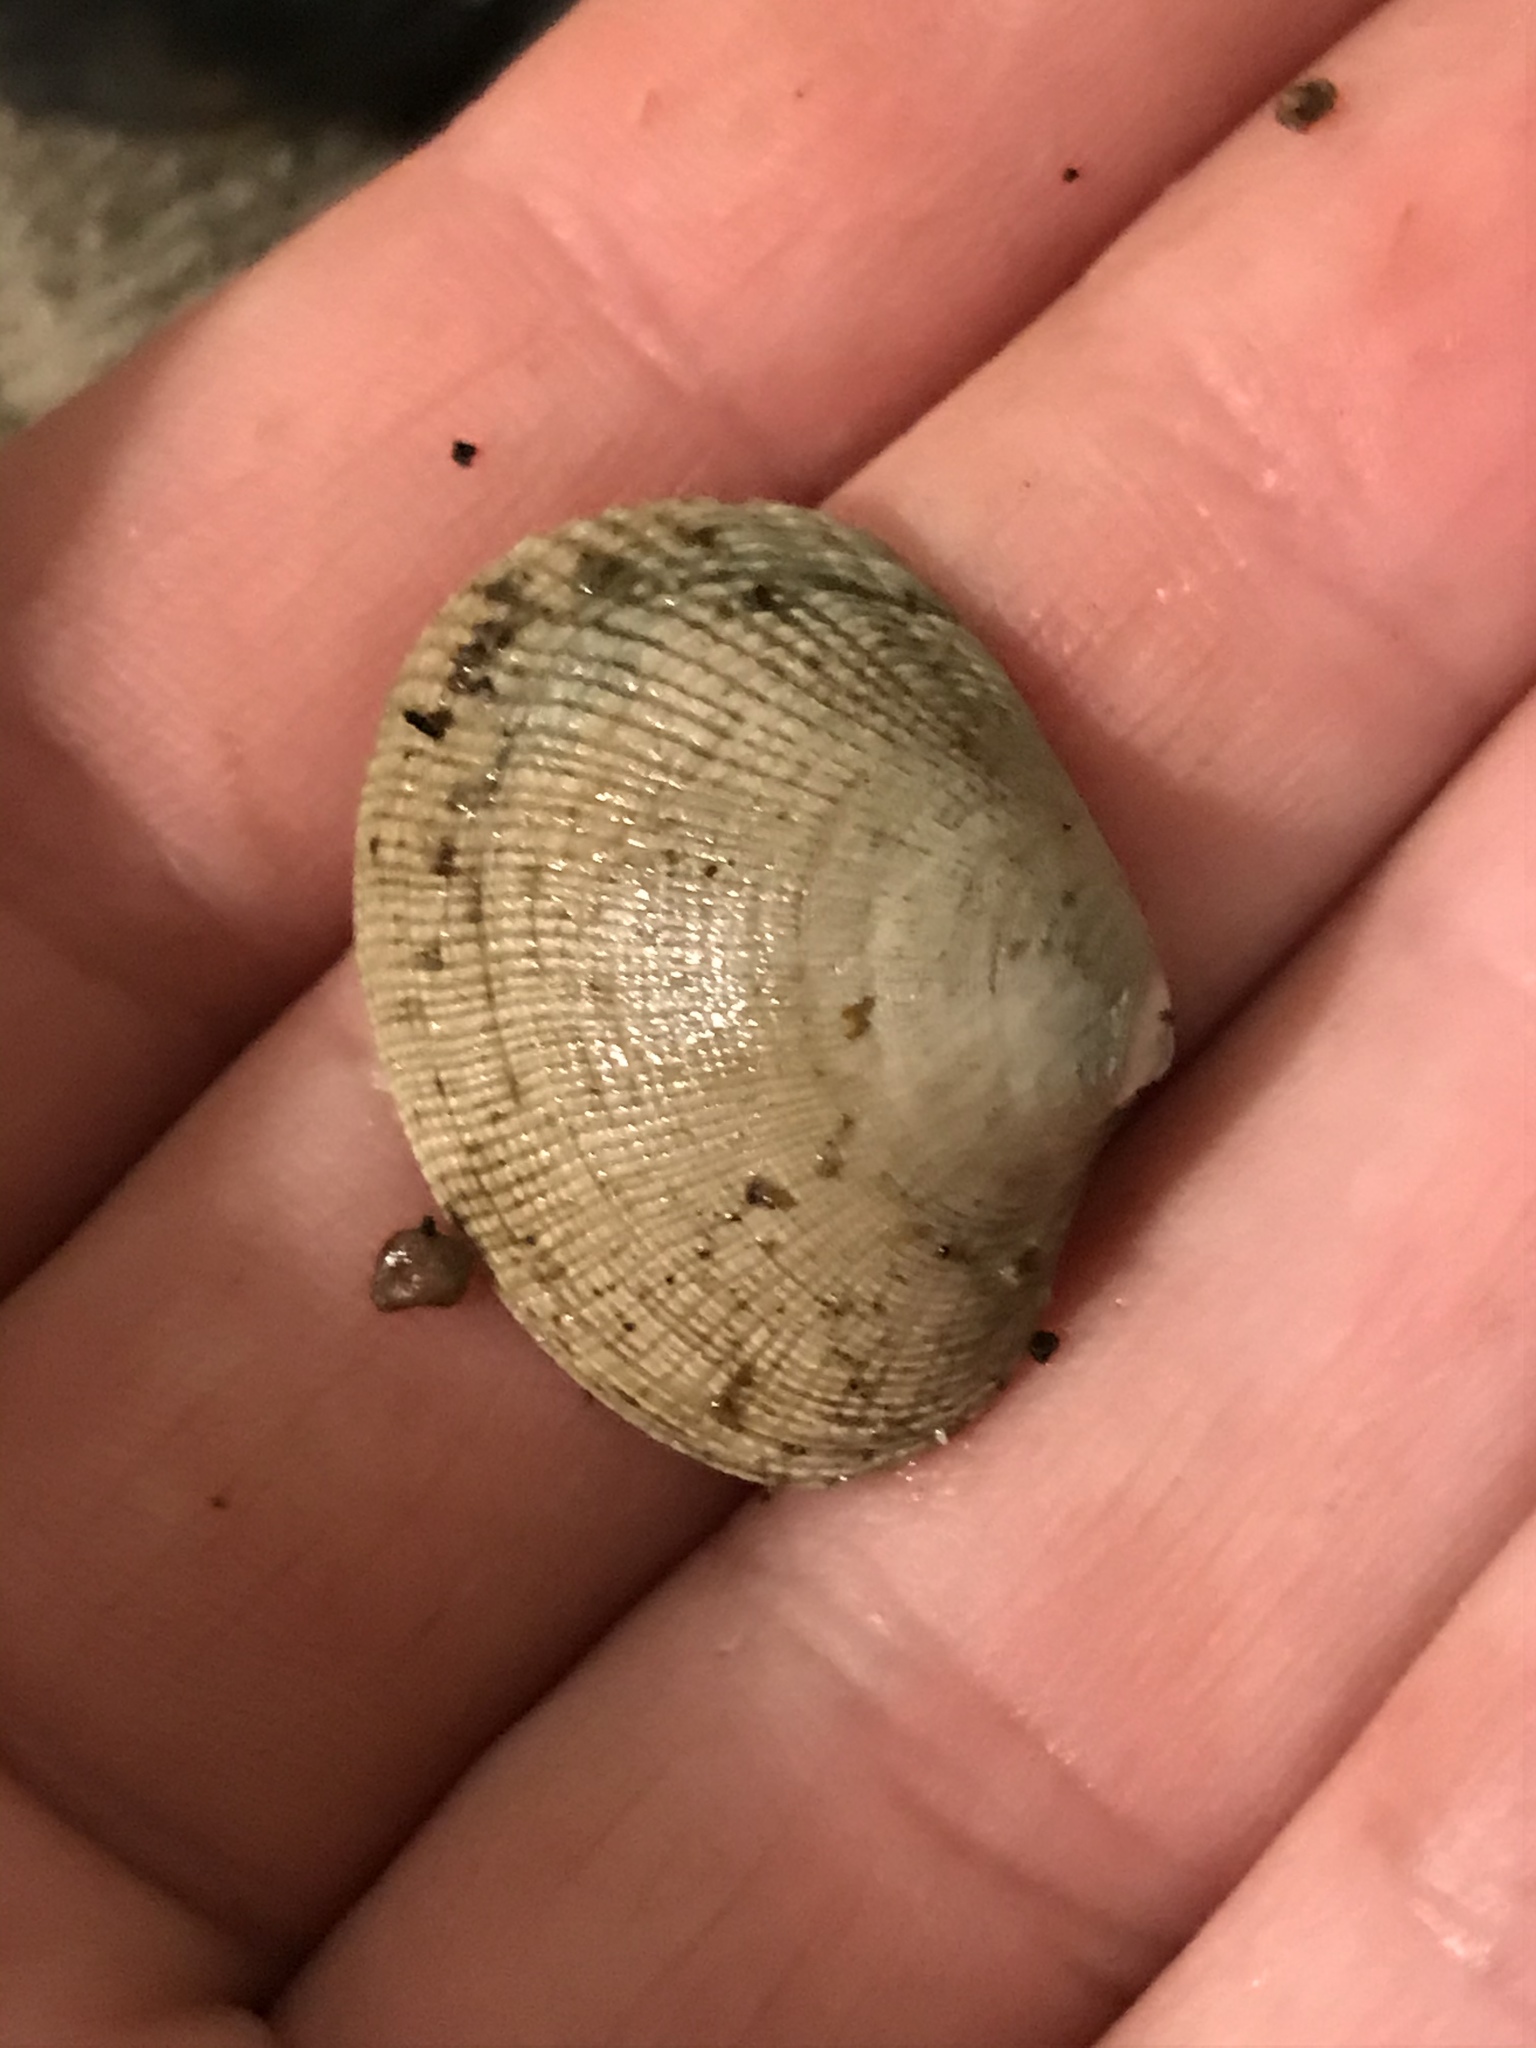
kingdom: Animalia
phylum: Mollusca
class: Bivalvia
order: Venerida
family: Veneridae
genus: Ruditapes
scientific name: Ruditapes philippinarum
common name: Manila clam
